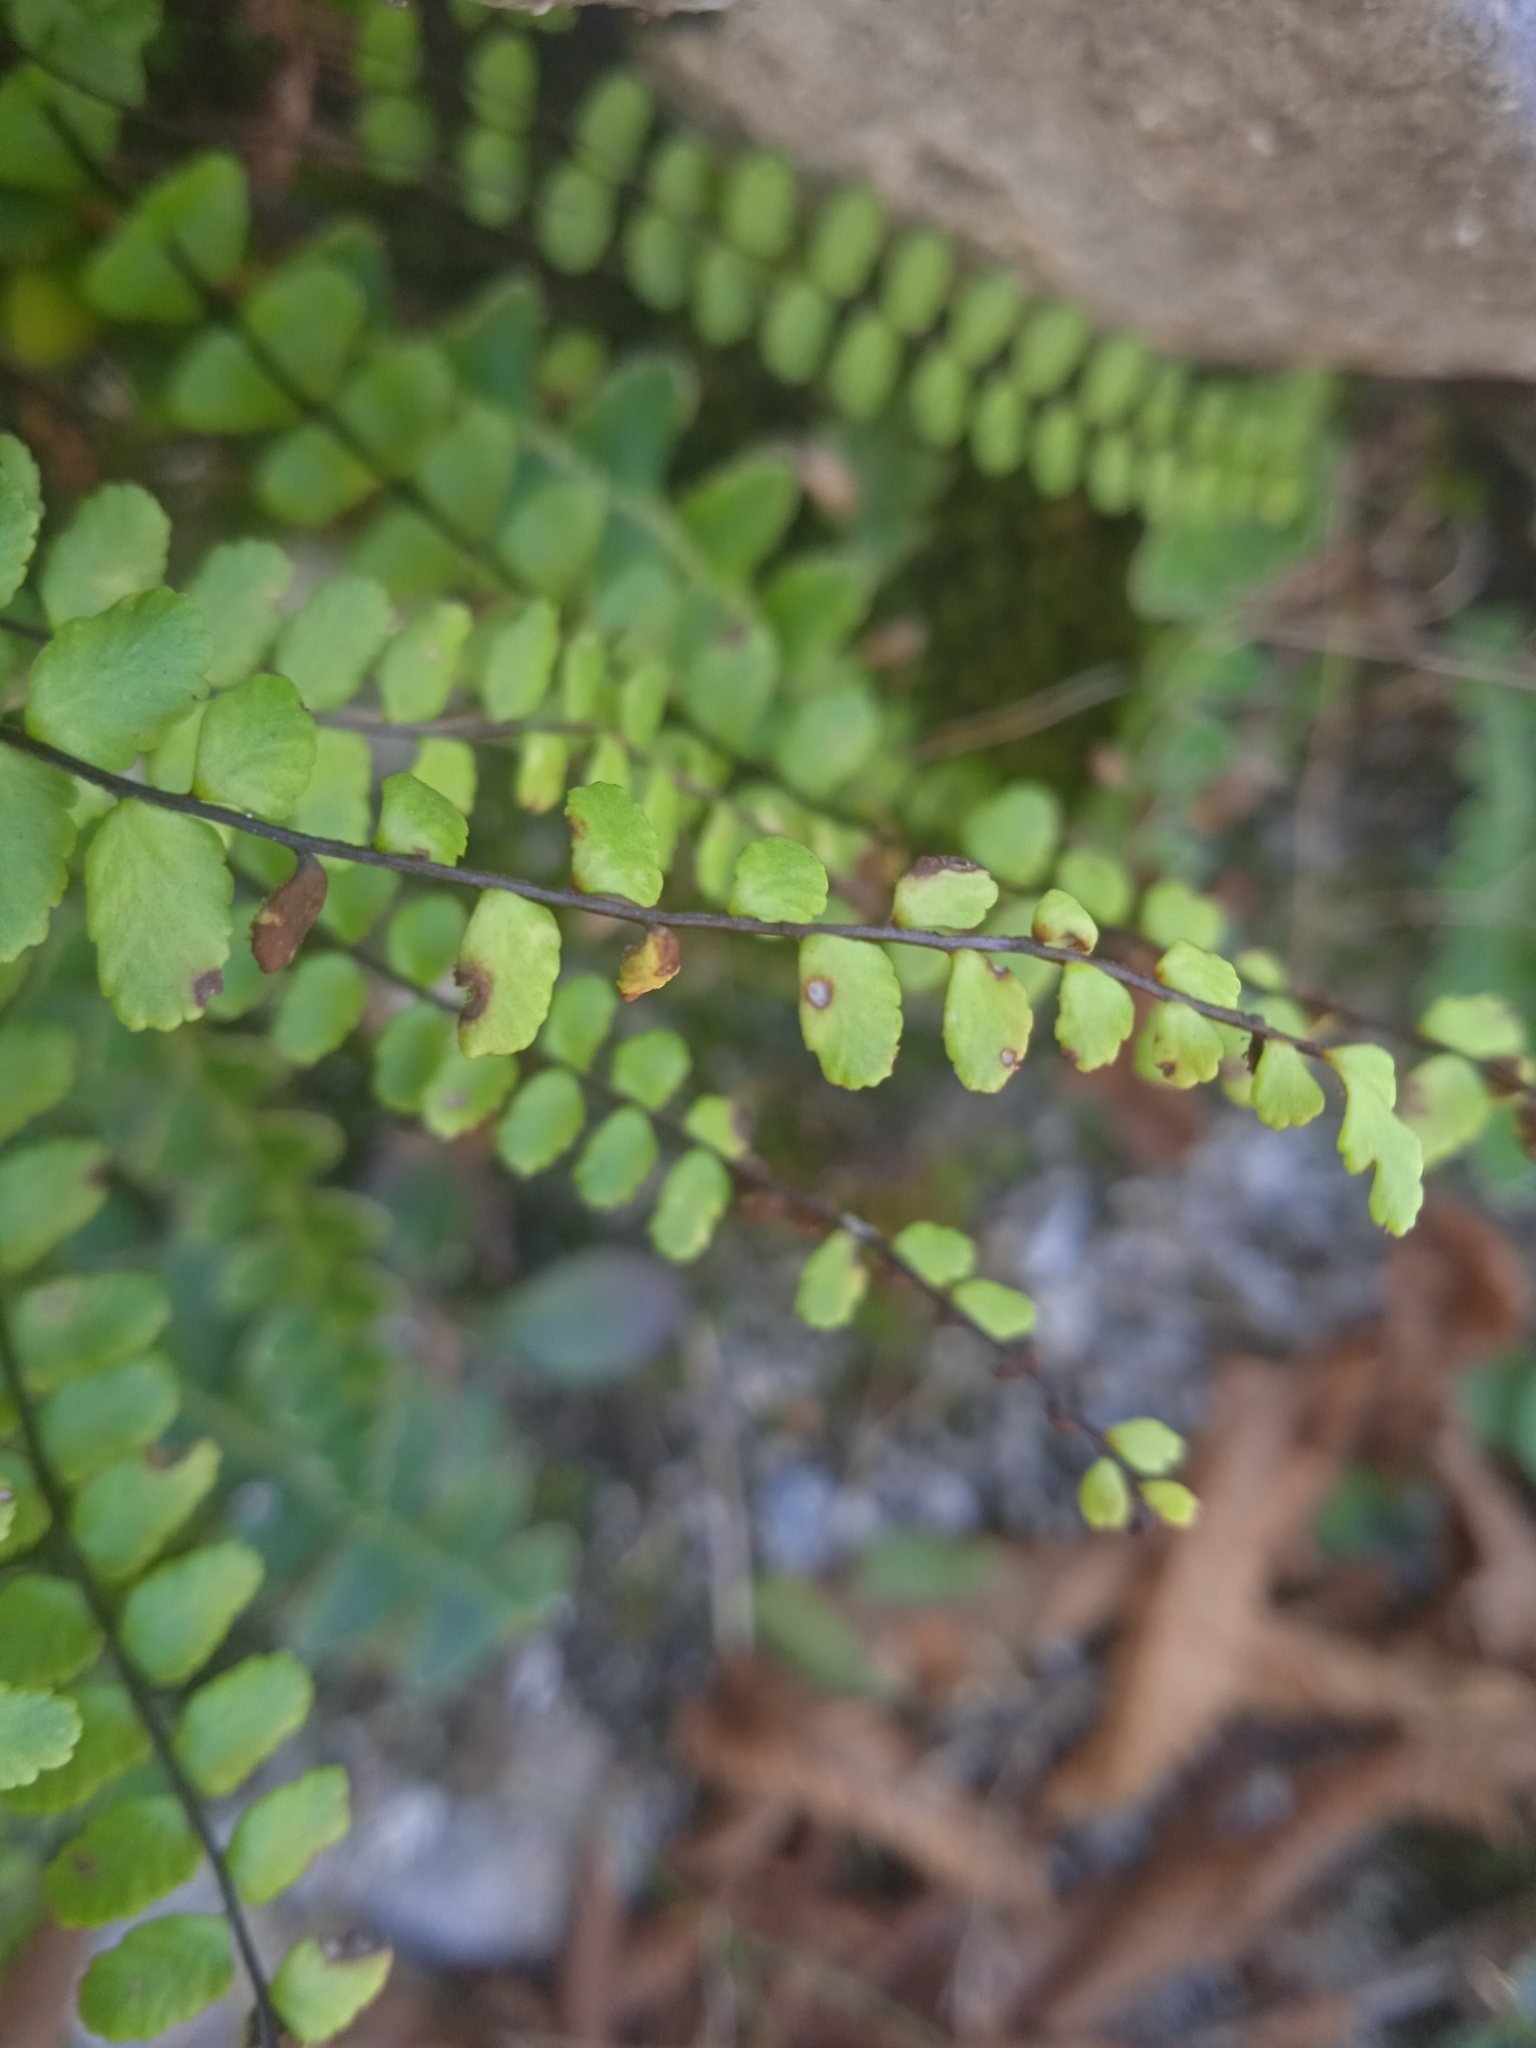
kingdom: Plantae
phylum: Tracheophyta
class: Polypodiopsida
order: Polypodiales
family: Aspleniaceae
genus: Asplenium
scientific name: Asplenium trichomanes
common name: Maidenhair spleenwort
